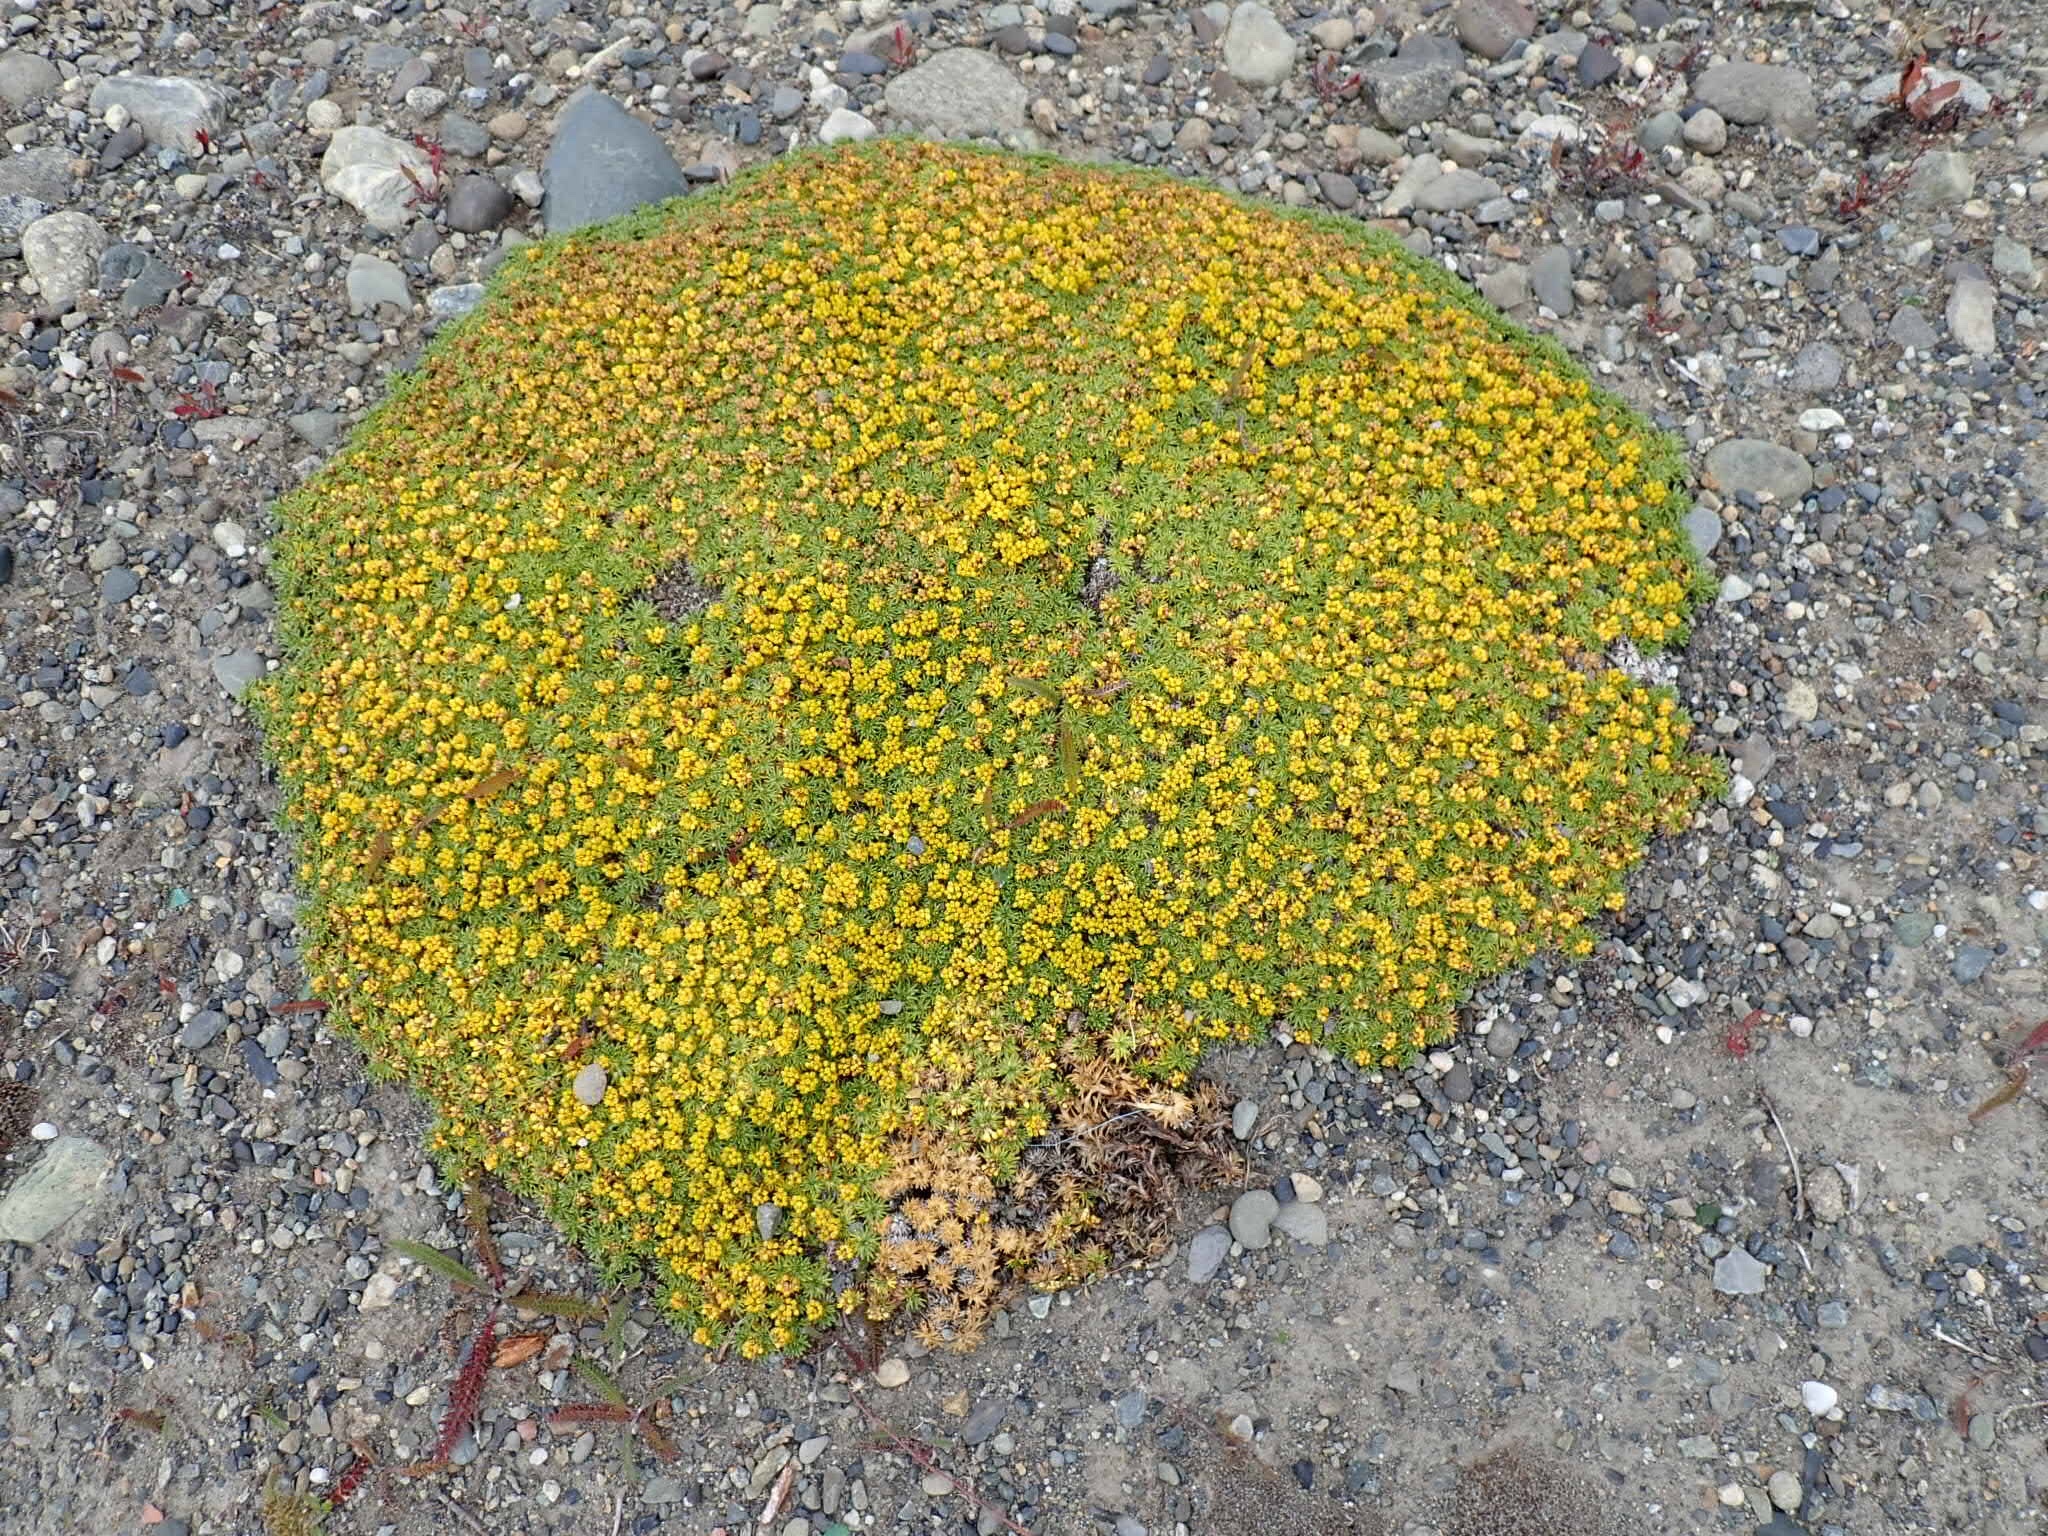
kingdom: Plantae
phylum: Tracheophyta
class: Magnoliopsida
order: Apiales
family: Apiaceae
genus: Azorella
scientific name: Azorella trifurcata
